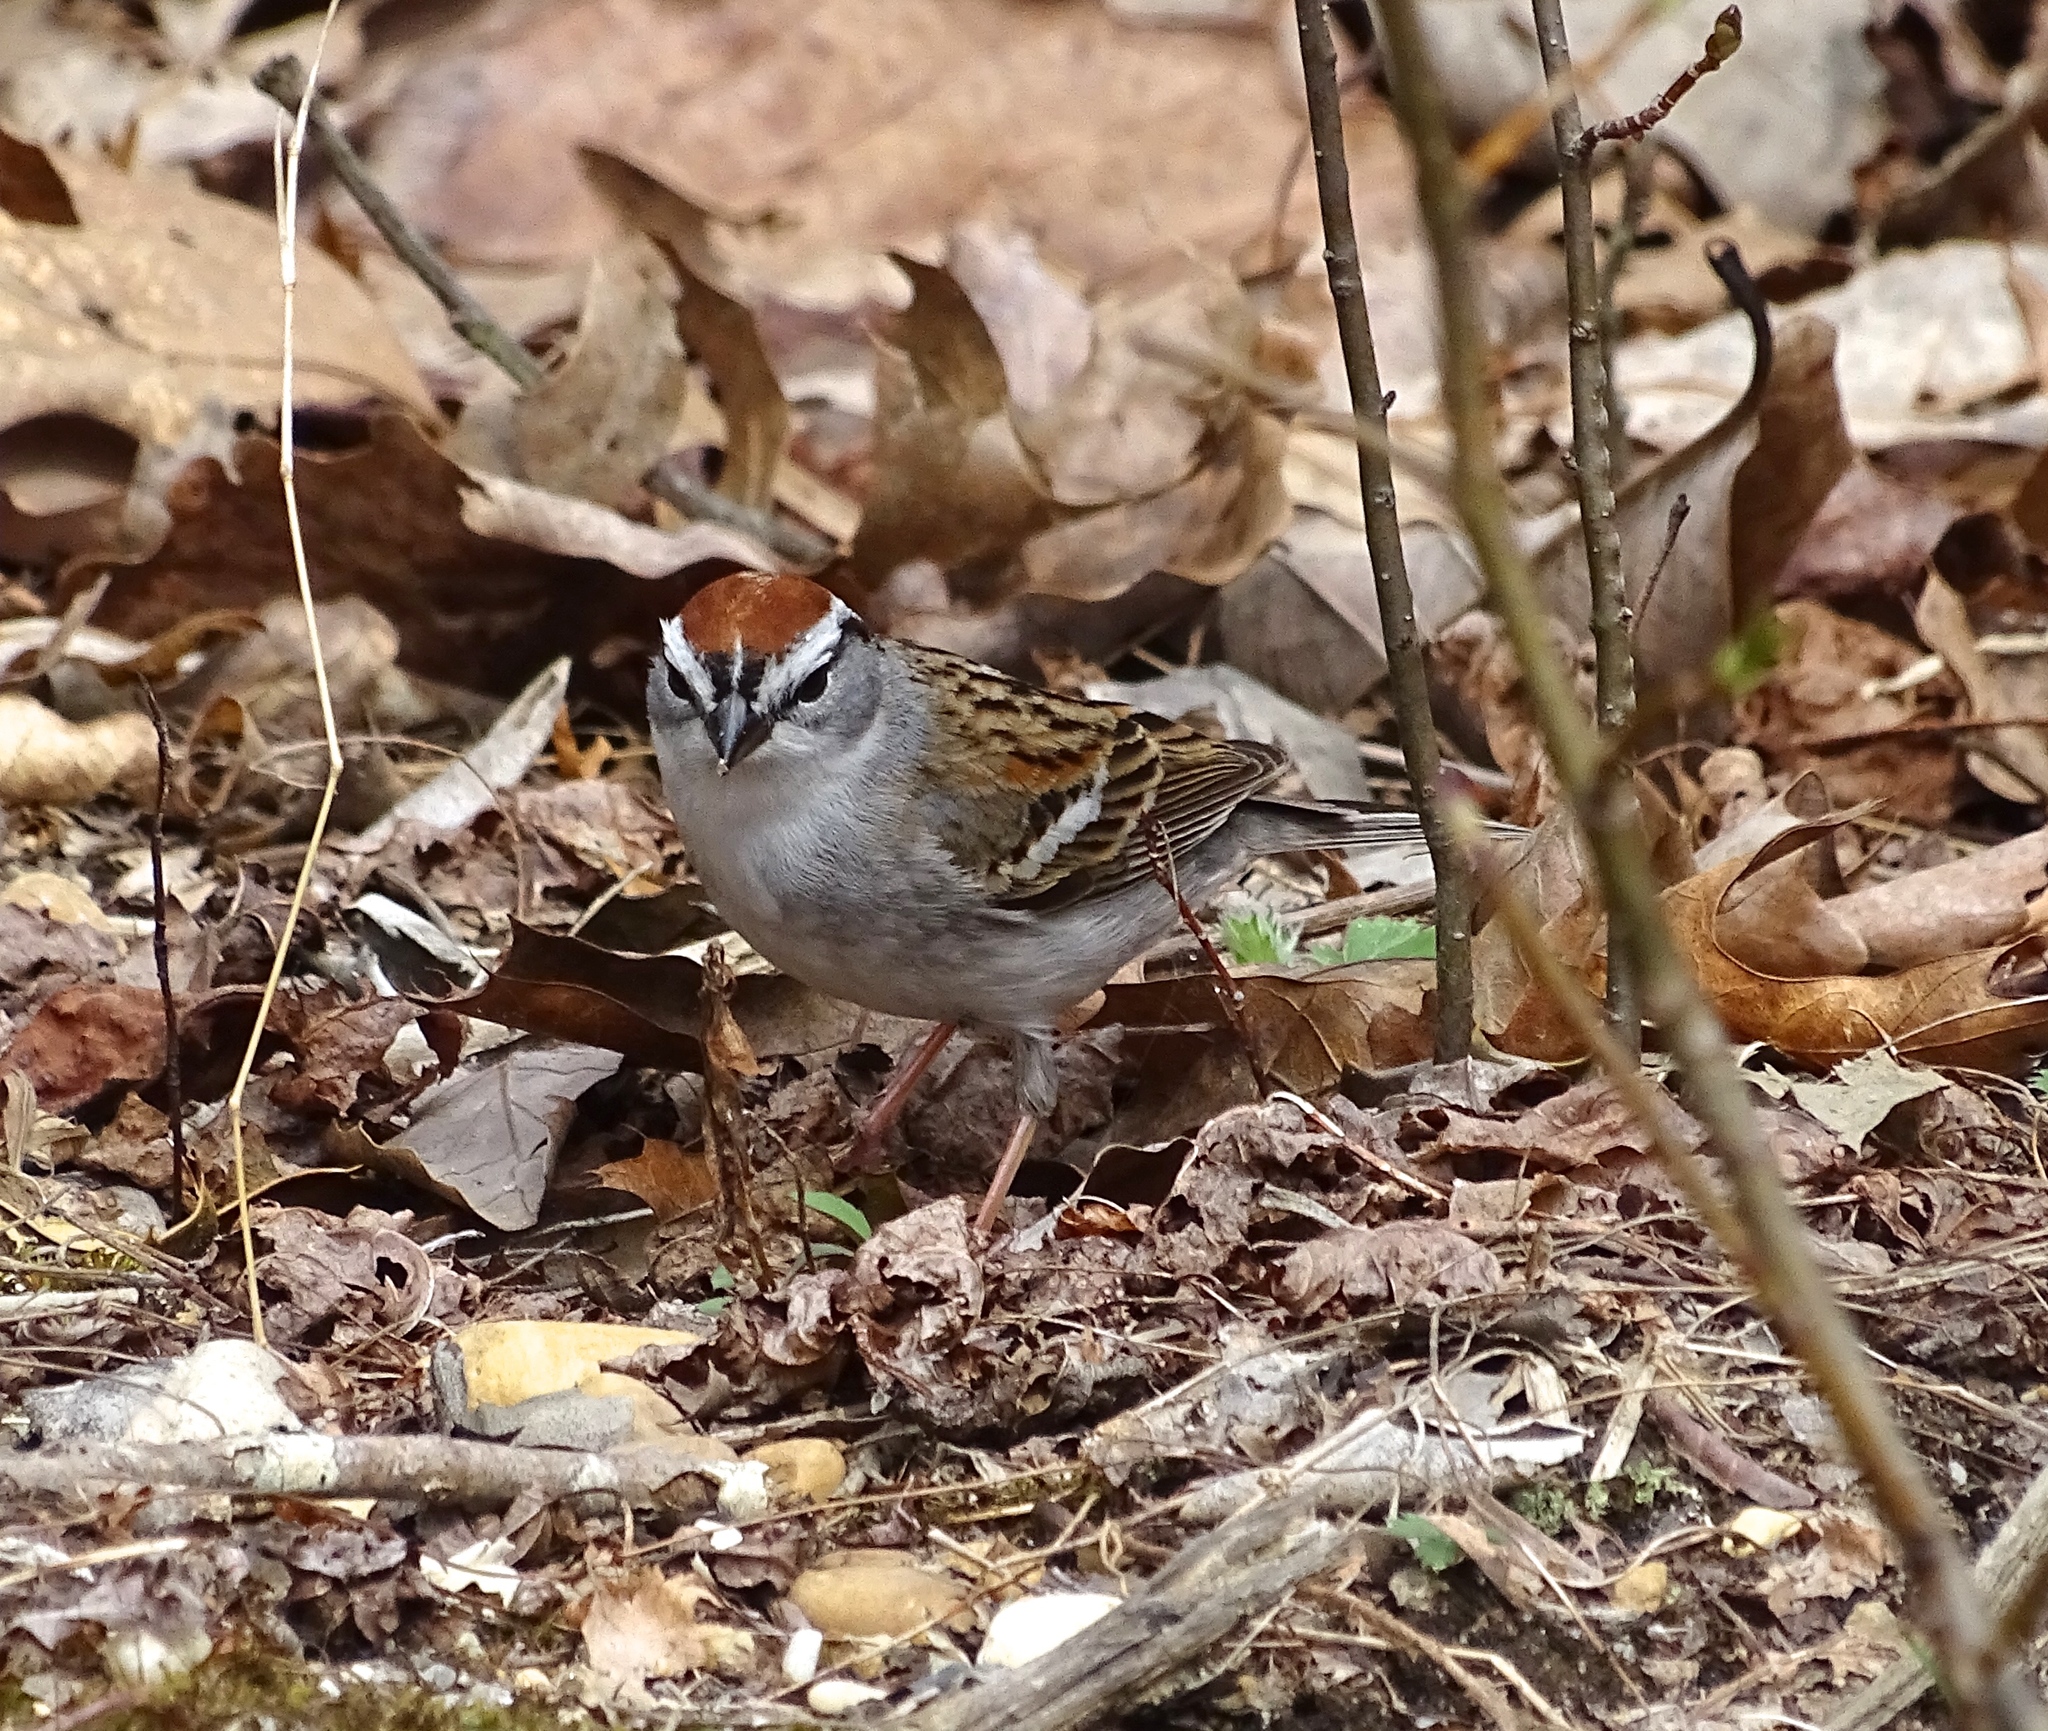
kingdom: Animalia
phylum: Chordata
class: Aves
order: Passeriformes
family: Passerellidae
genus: Spizella
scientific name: Spizella passerina
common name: Chipping sparrow
